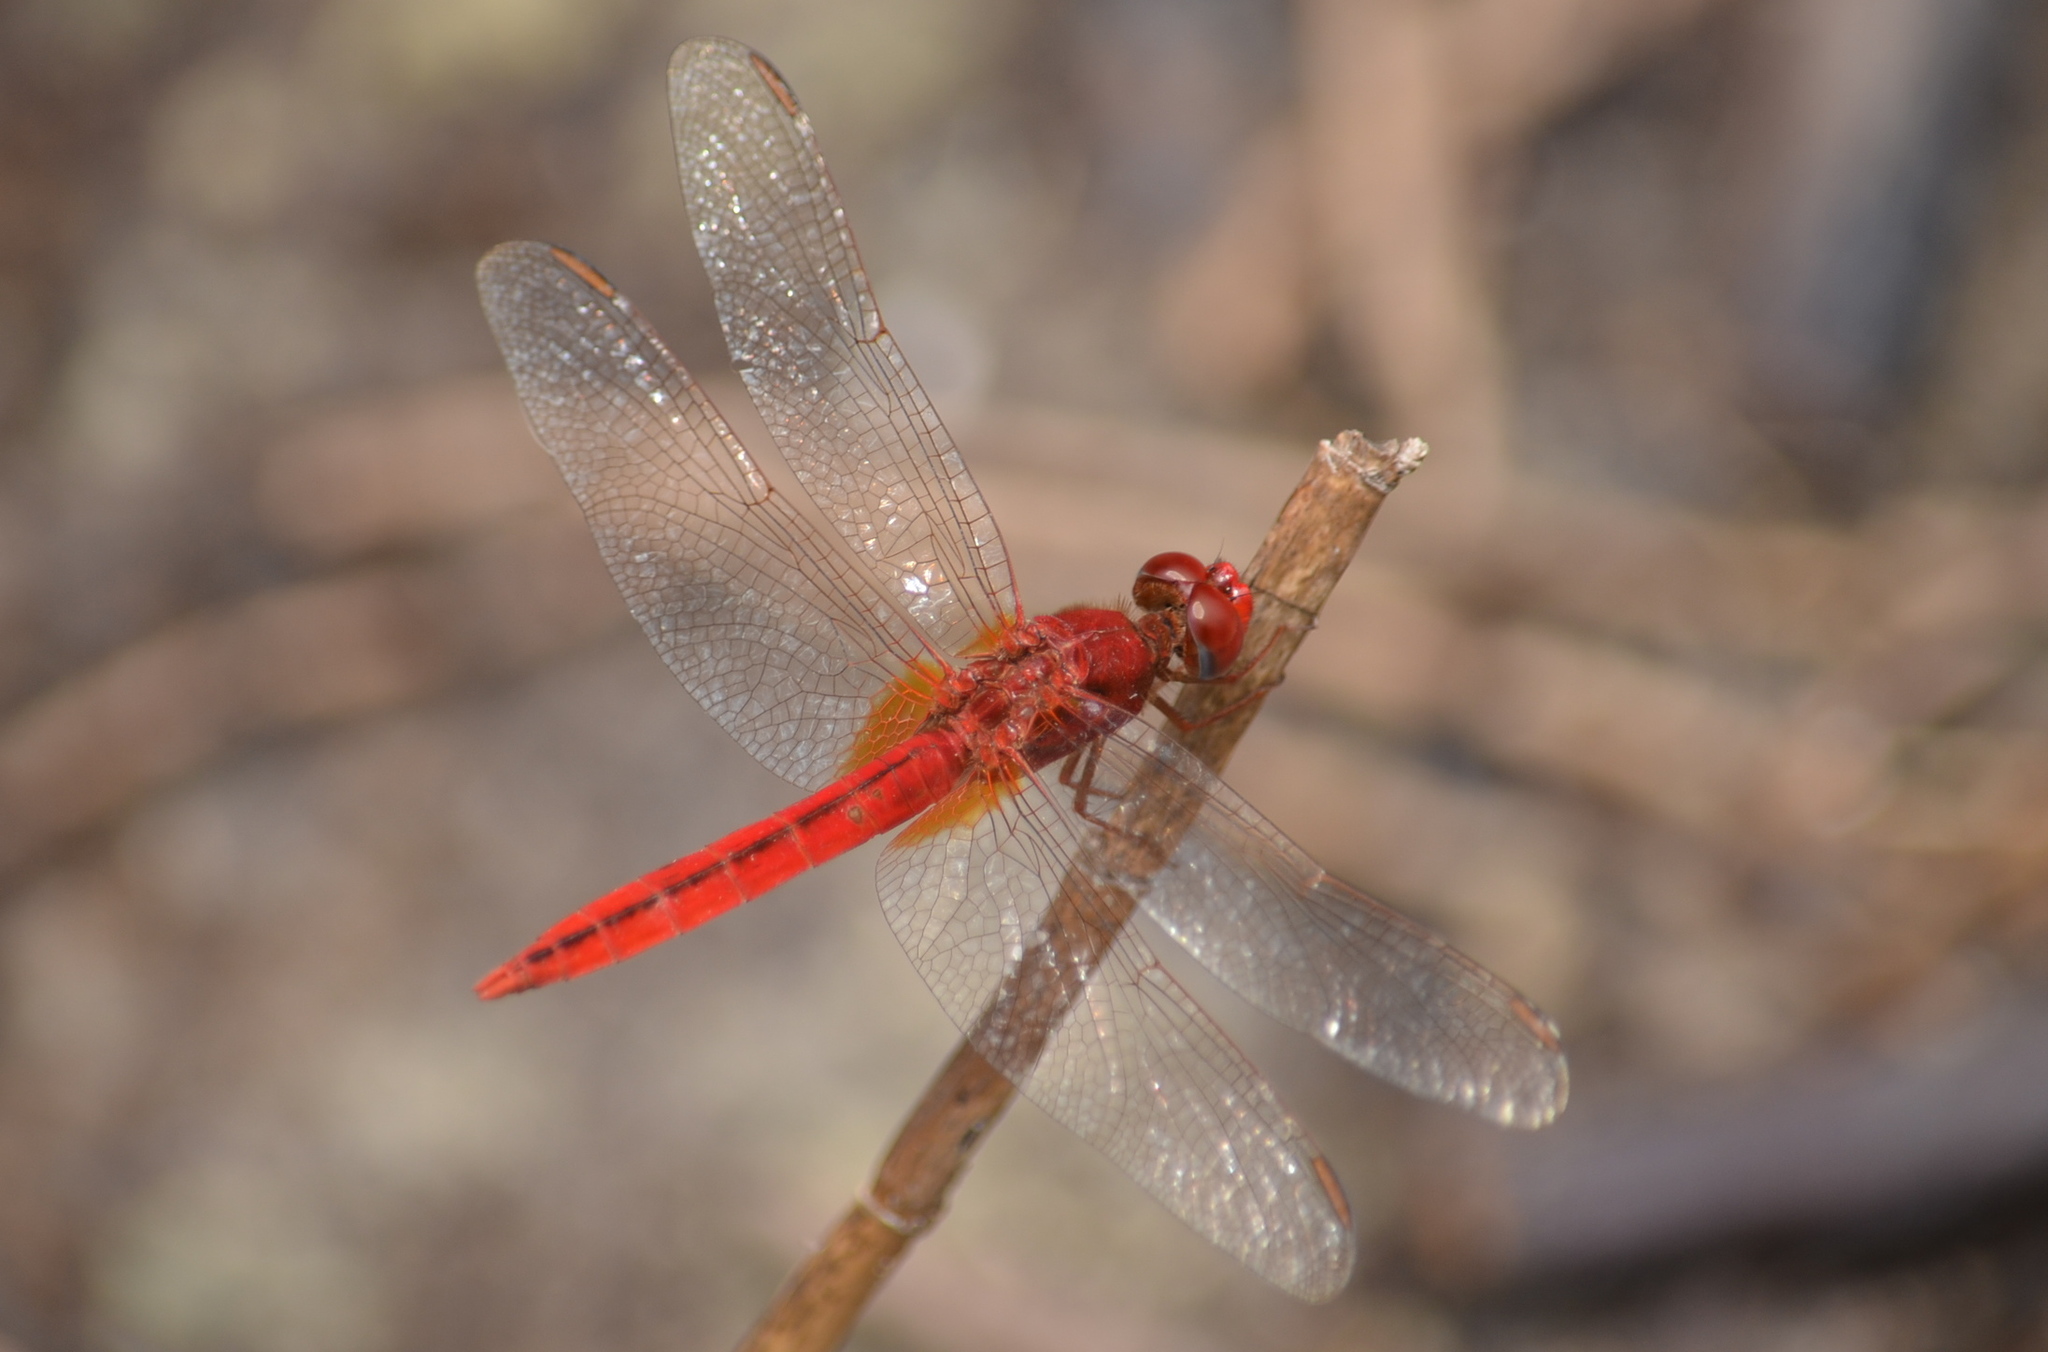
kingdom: Animalia
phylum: Arthropoda
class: Insecta
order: Odonata
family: Libellulidae
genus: Crocothemis
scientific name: Crocothemis servilia
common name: Scarlet skimmer
